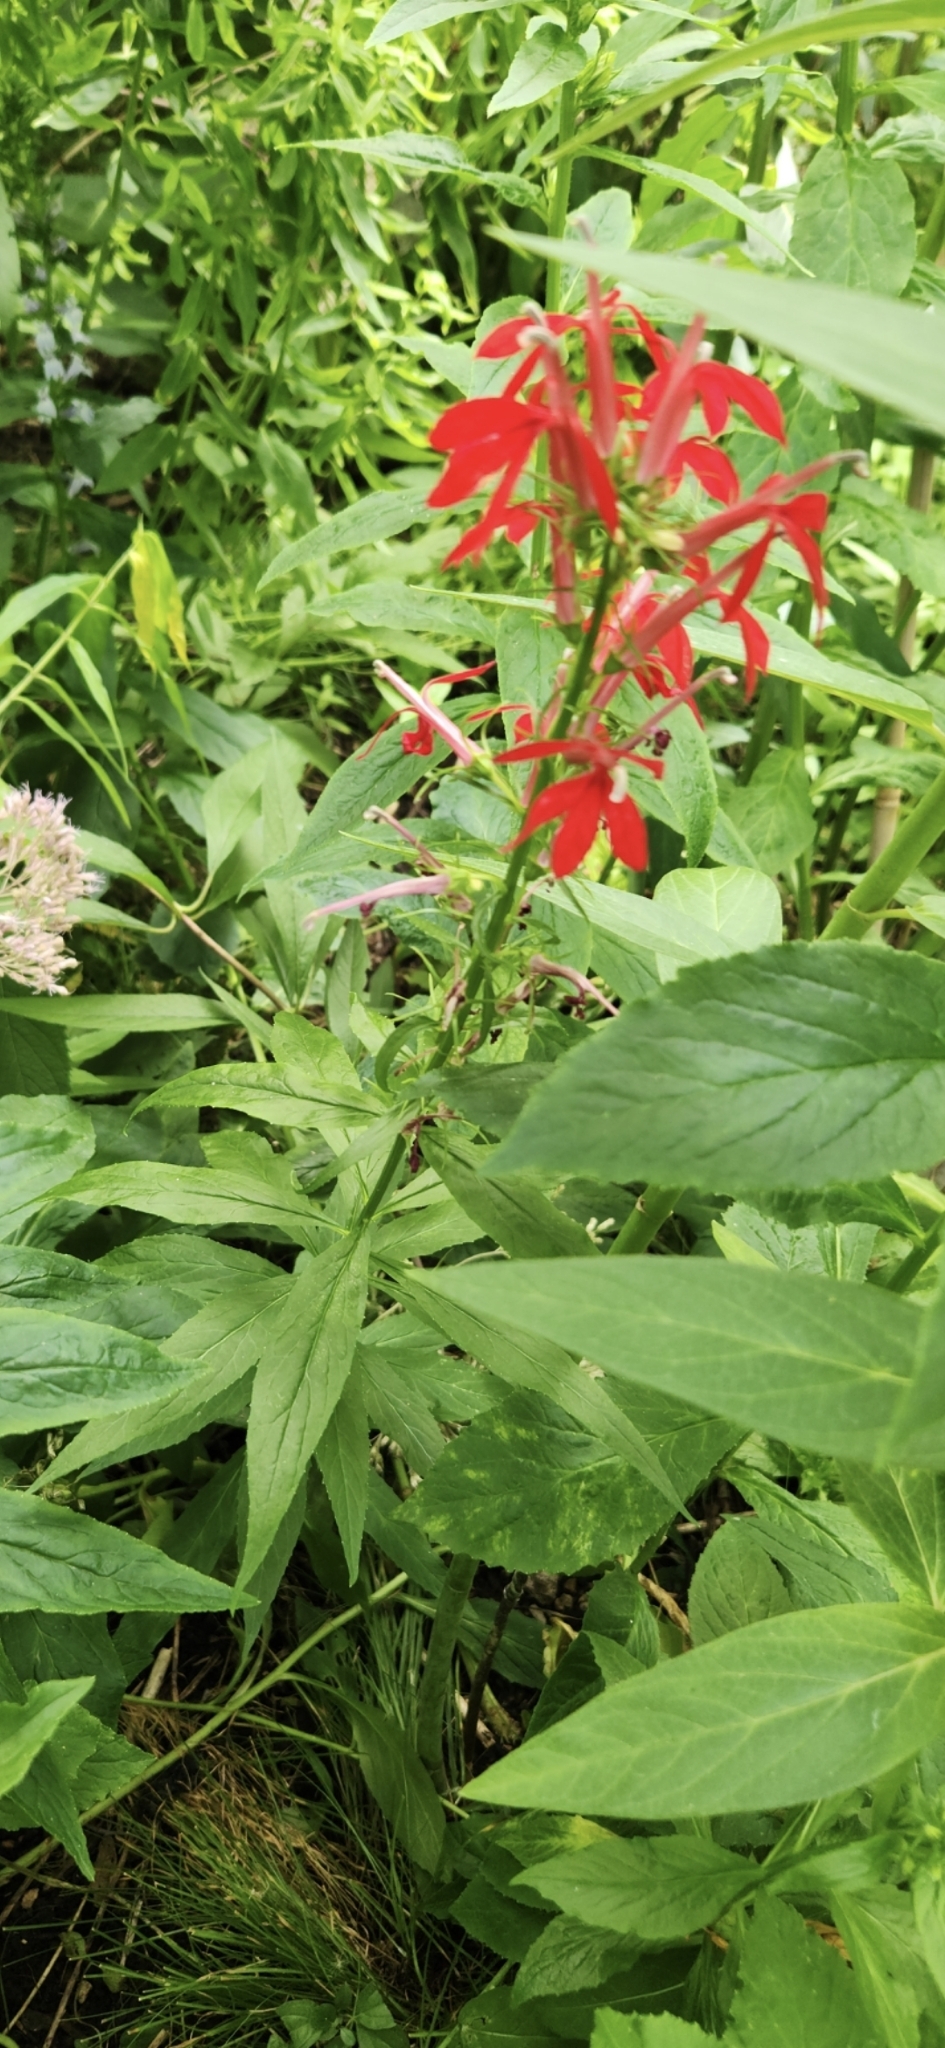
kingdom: Plantae
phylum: Tracheophyta
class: Magnoliopsida
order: Asterales
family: Campanulaceae
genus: Lobelia
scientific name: Lobelia cardinalis
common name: Cardinal flower
